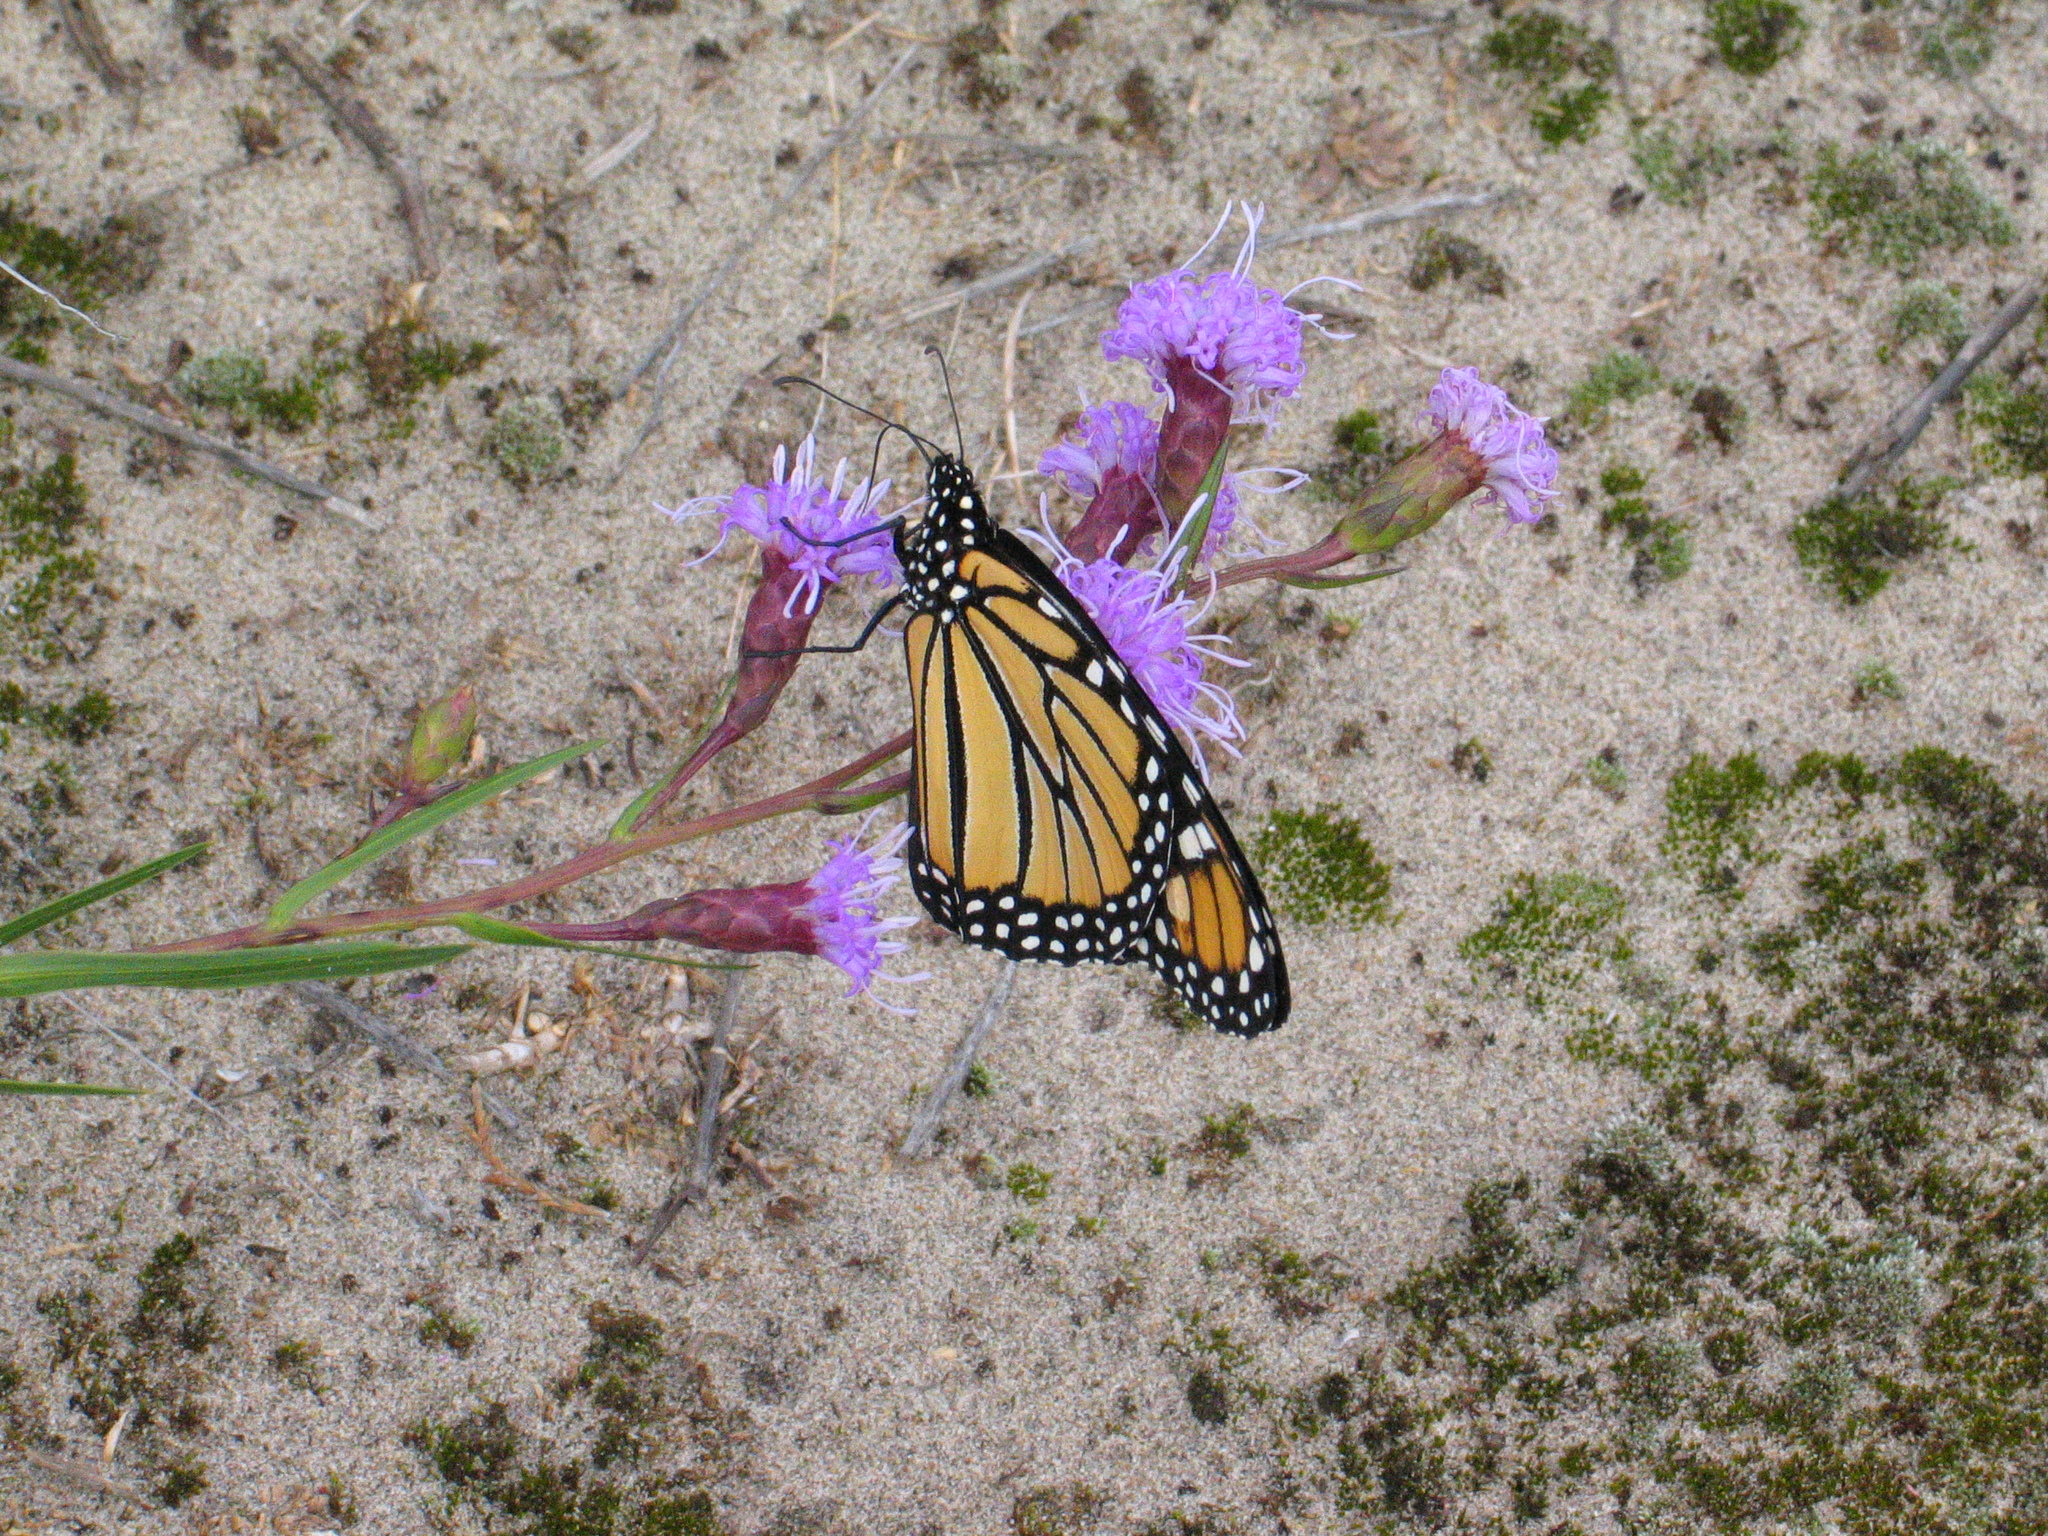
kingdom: Animalia
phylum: Arthropoda
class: Insecta
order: Lepidoptera
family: Nymphalidae
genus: Danaus
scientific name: Danaus plexippus
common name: Monarch
